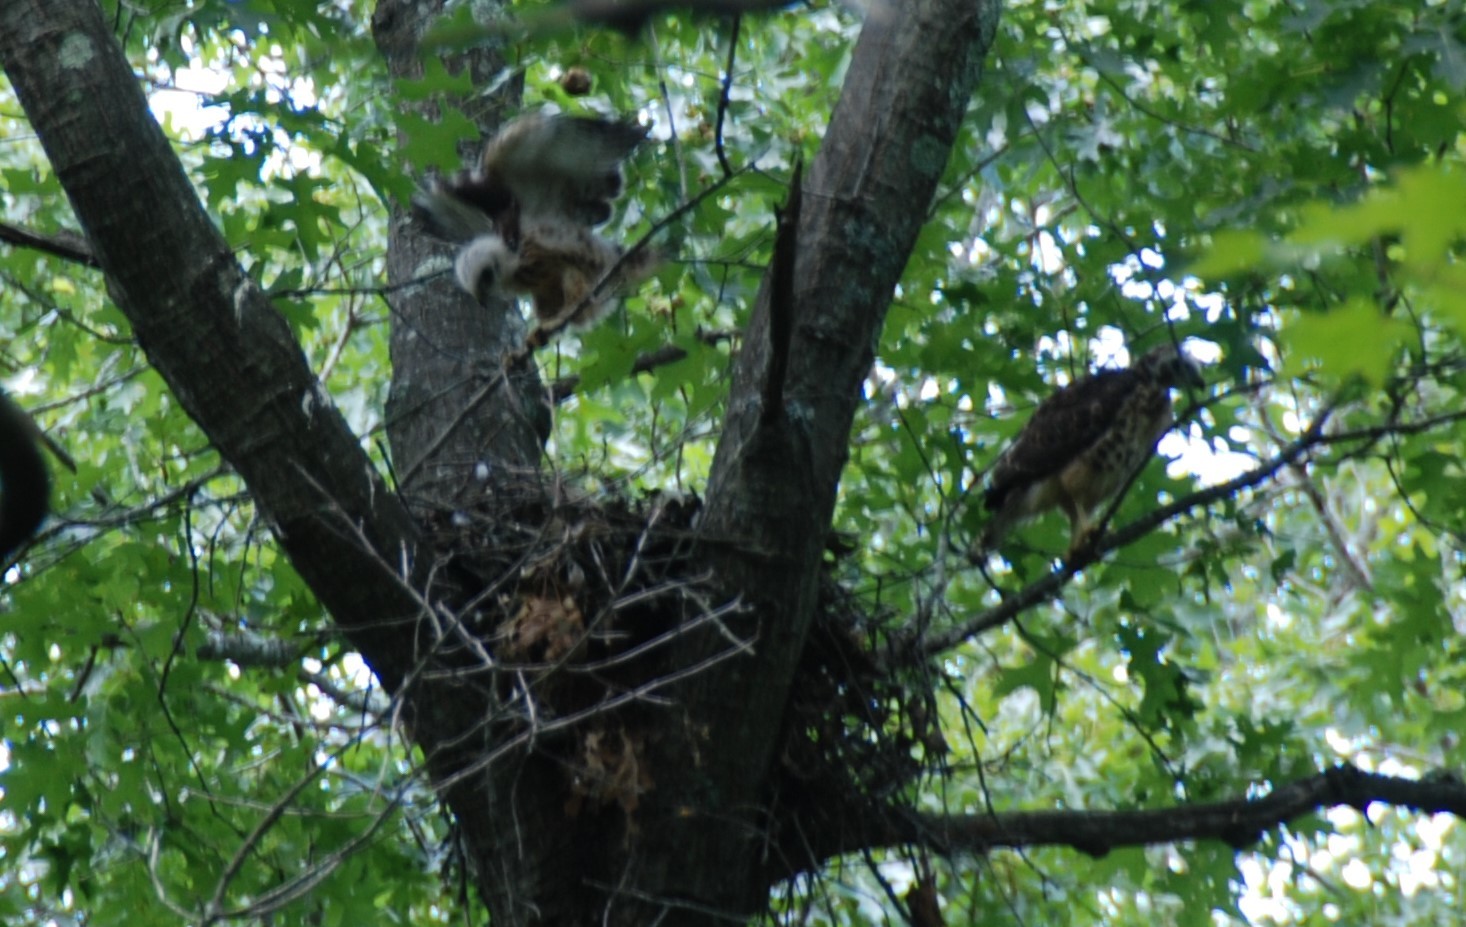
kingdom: Animalia
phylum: Chordata
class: Aves
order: Accipitriformes
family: Accipitridae
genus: Buteo
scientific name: Buteo platypterus
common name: Broad-winged hawk
